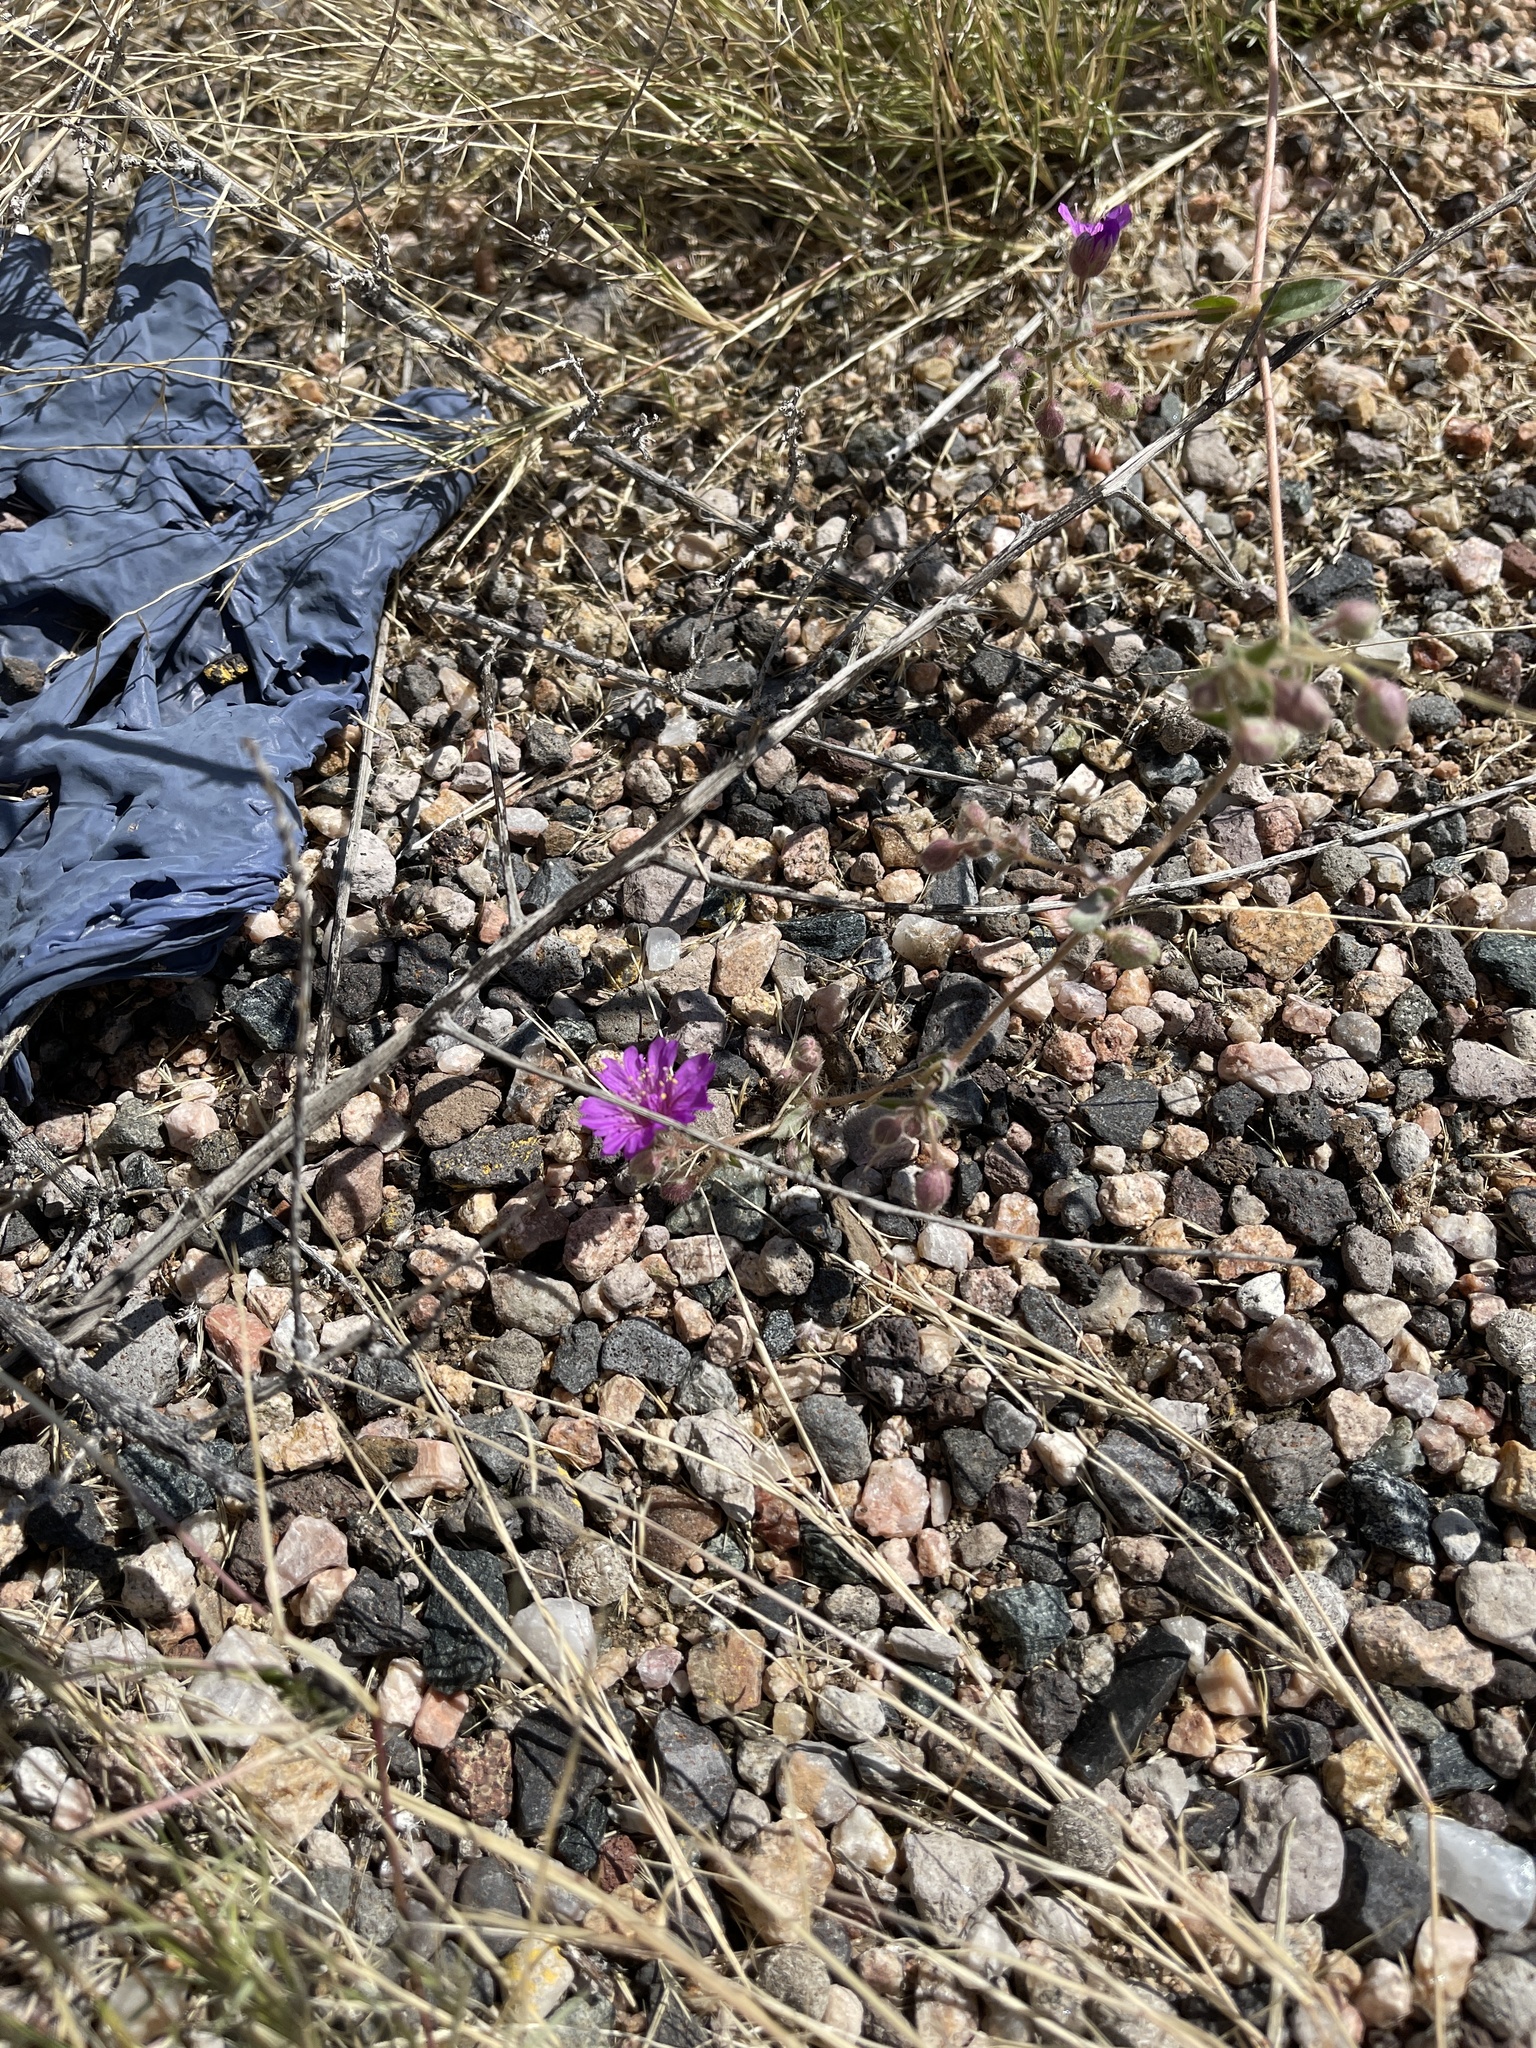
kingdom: Plantae
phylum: Tracheophyta
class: Magnoliopsida
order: Caryophyllales
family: Nyctaginaceae
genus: Allionia
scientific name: Allionia incarnata
